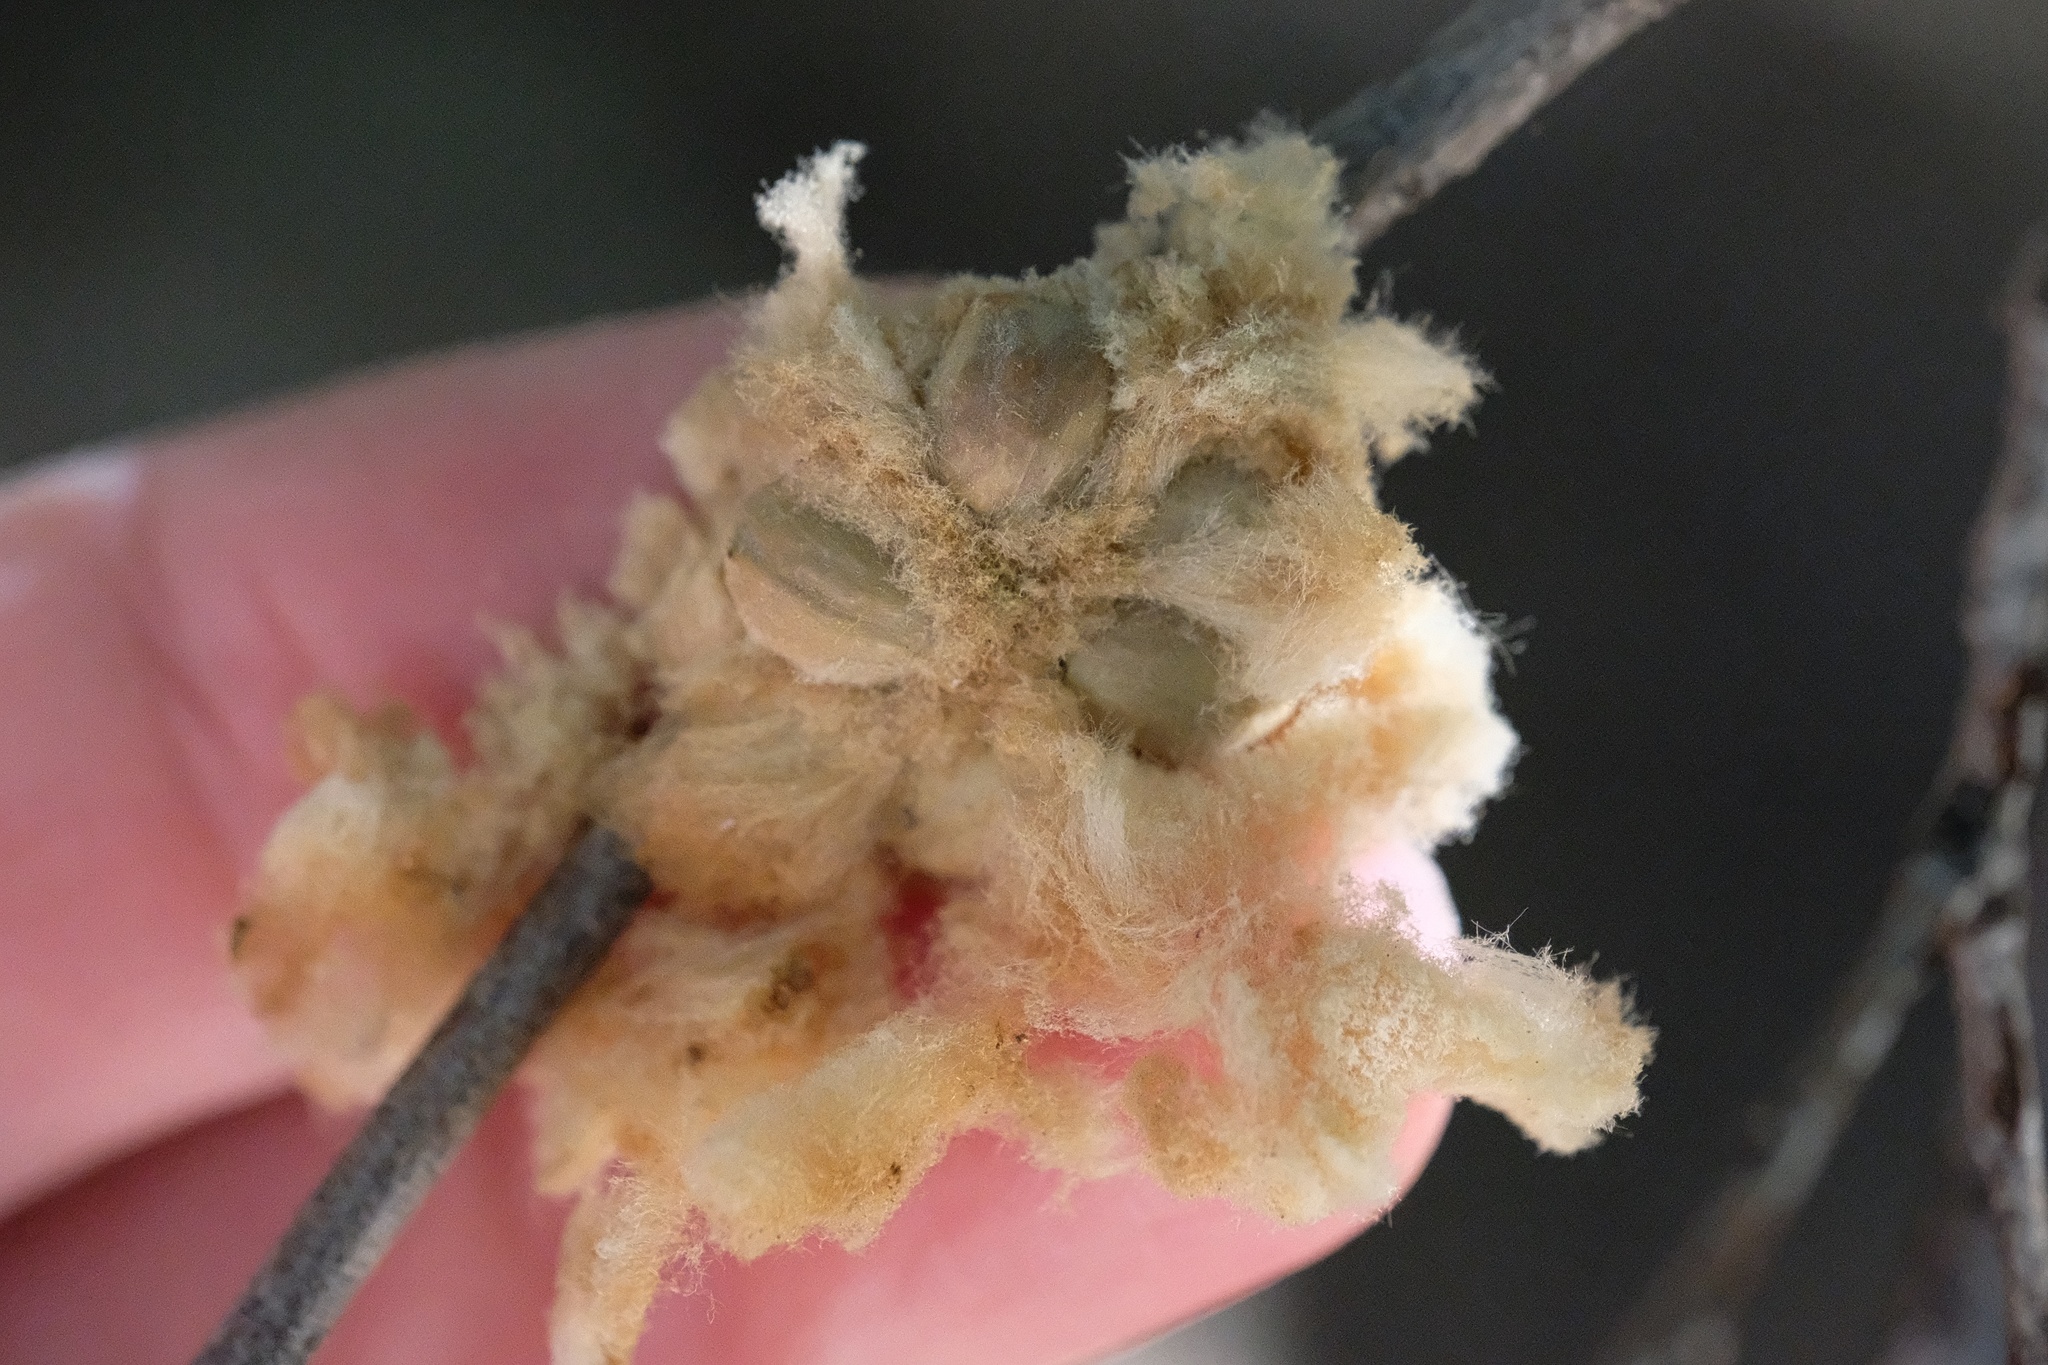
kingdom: Animalia
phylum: Arthropoda
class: Insecta
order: Hymenoptera
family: Cynipidae
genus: Heteroecus
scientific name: Heteroecus
